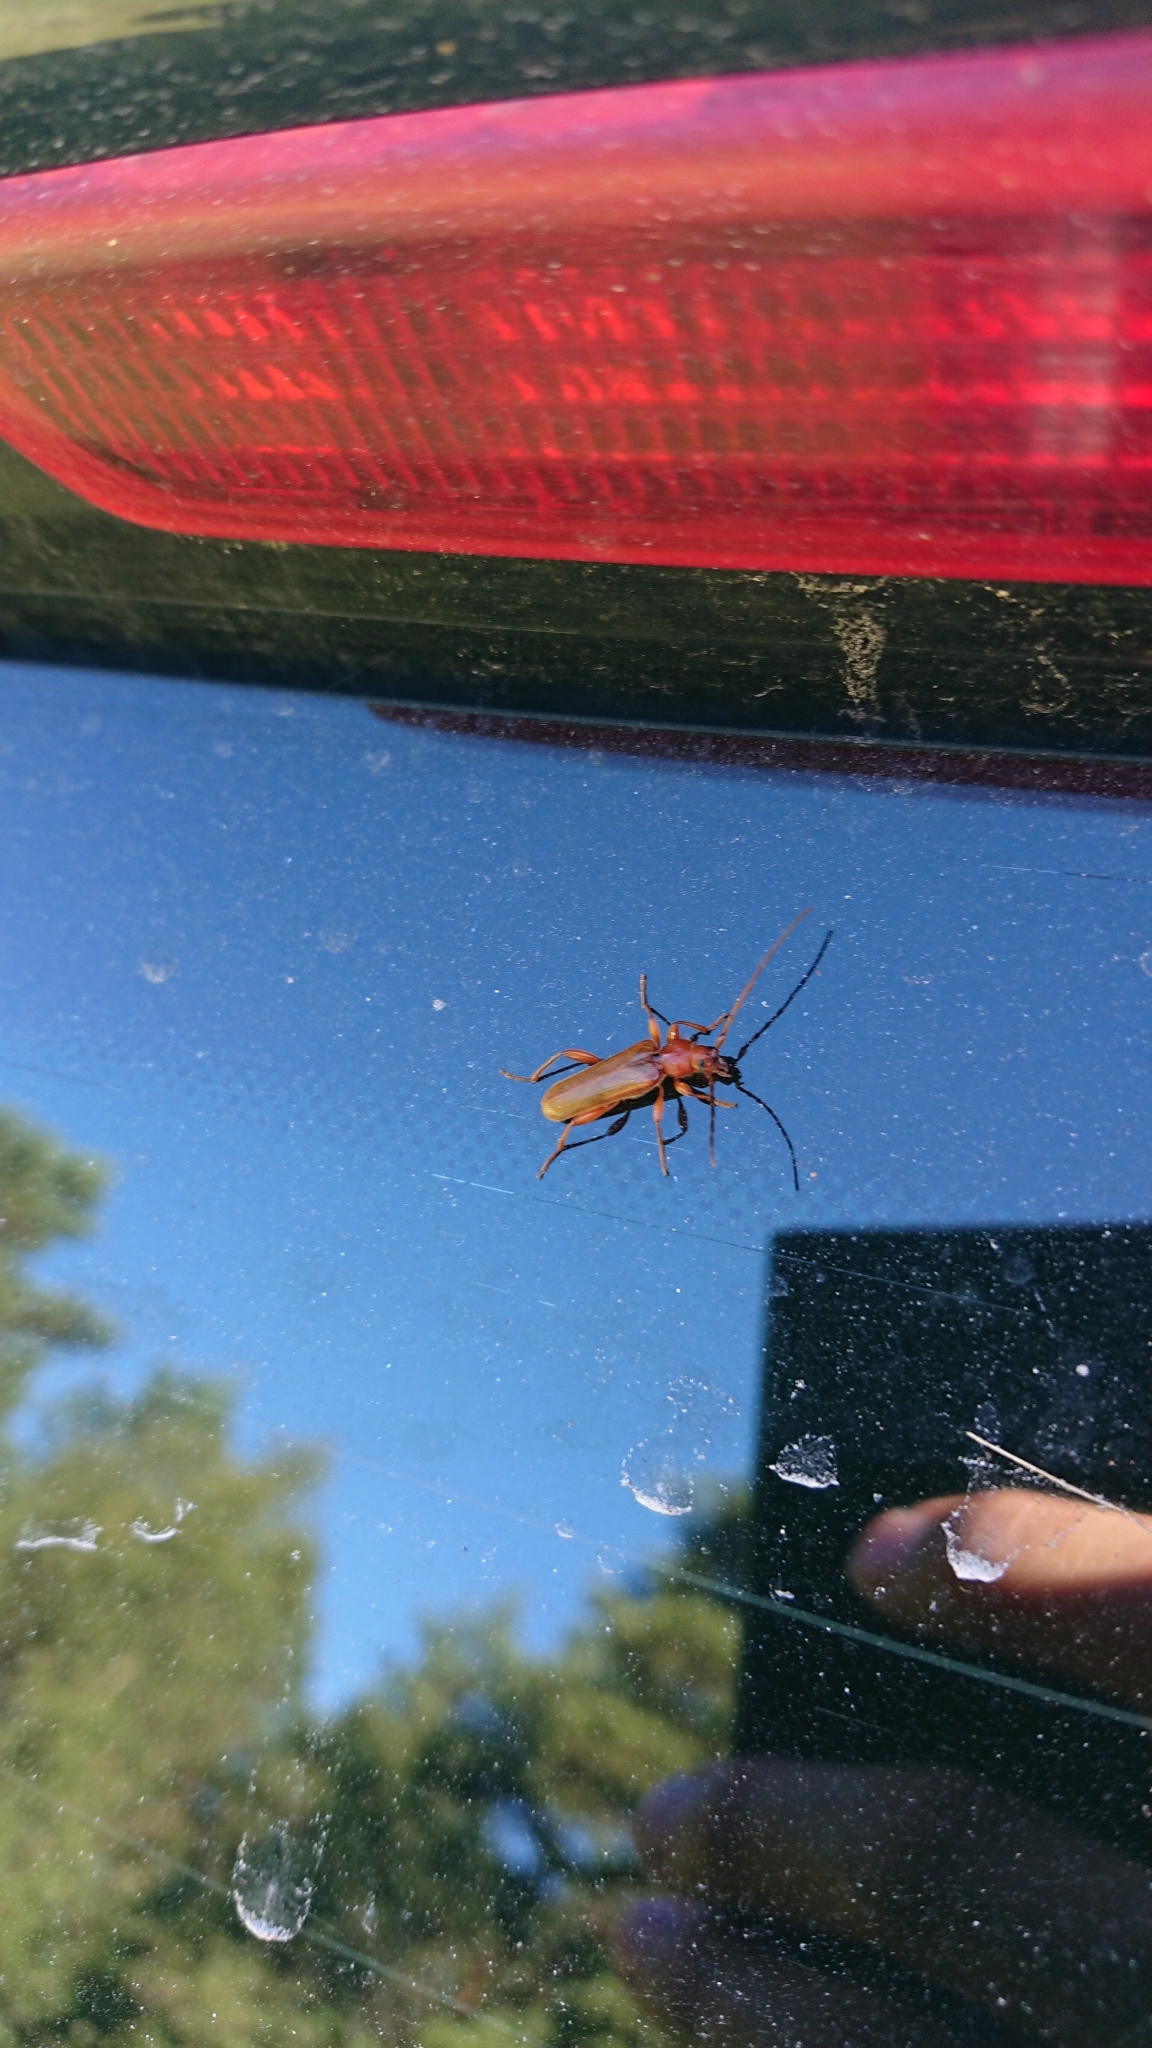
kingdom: Animalia
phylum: Arthropoda
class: Insecta
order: Coleoptera
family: Cerambycidae
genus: Phymatodes
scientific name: Phymatodes testaceus
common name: Long-horned beetle
